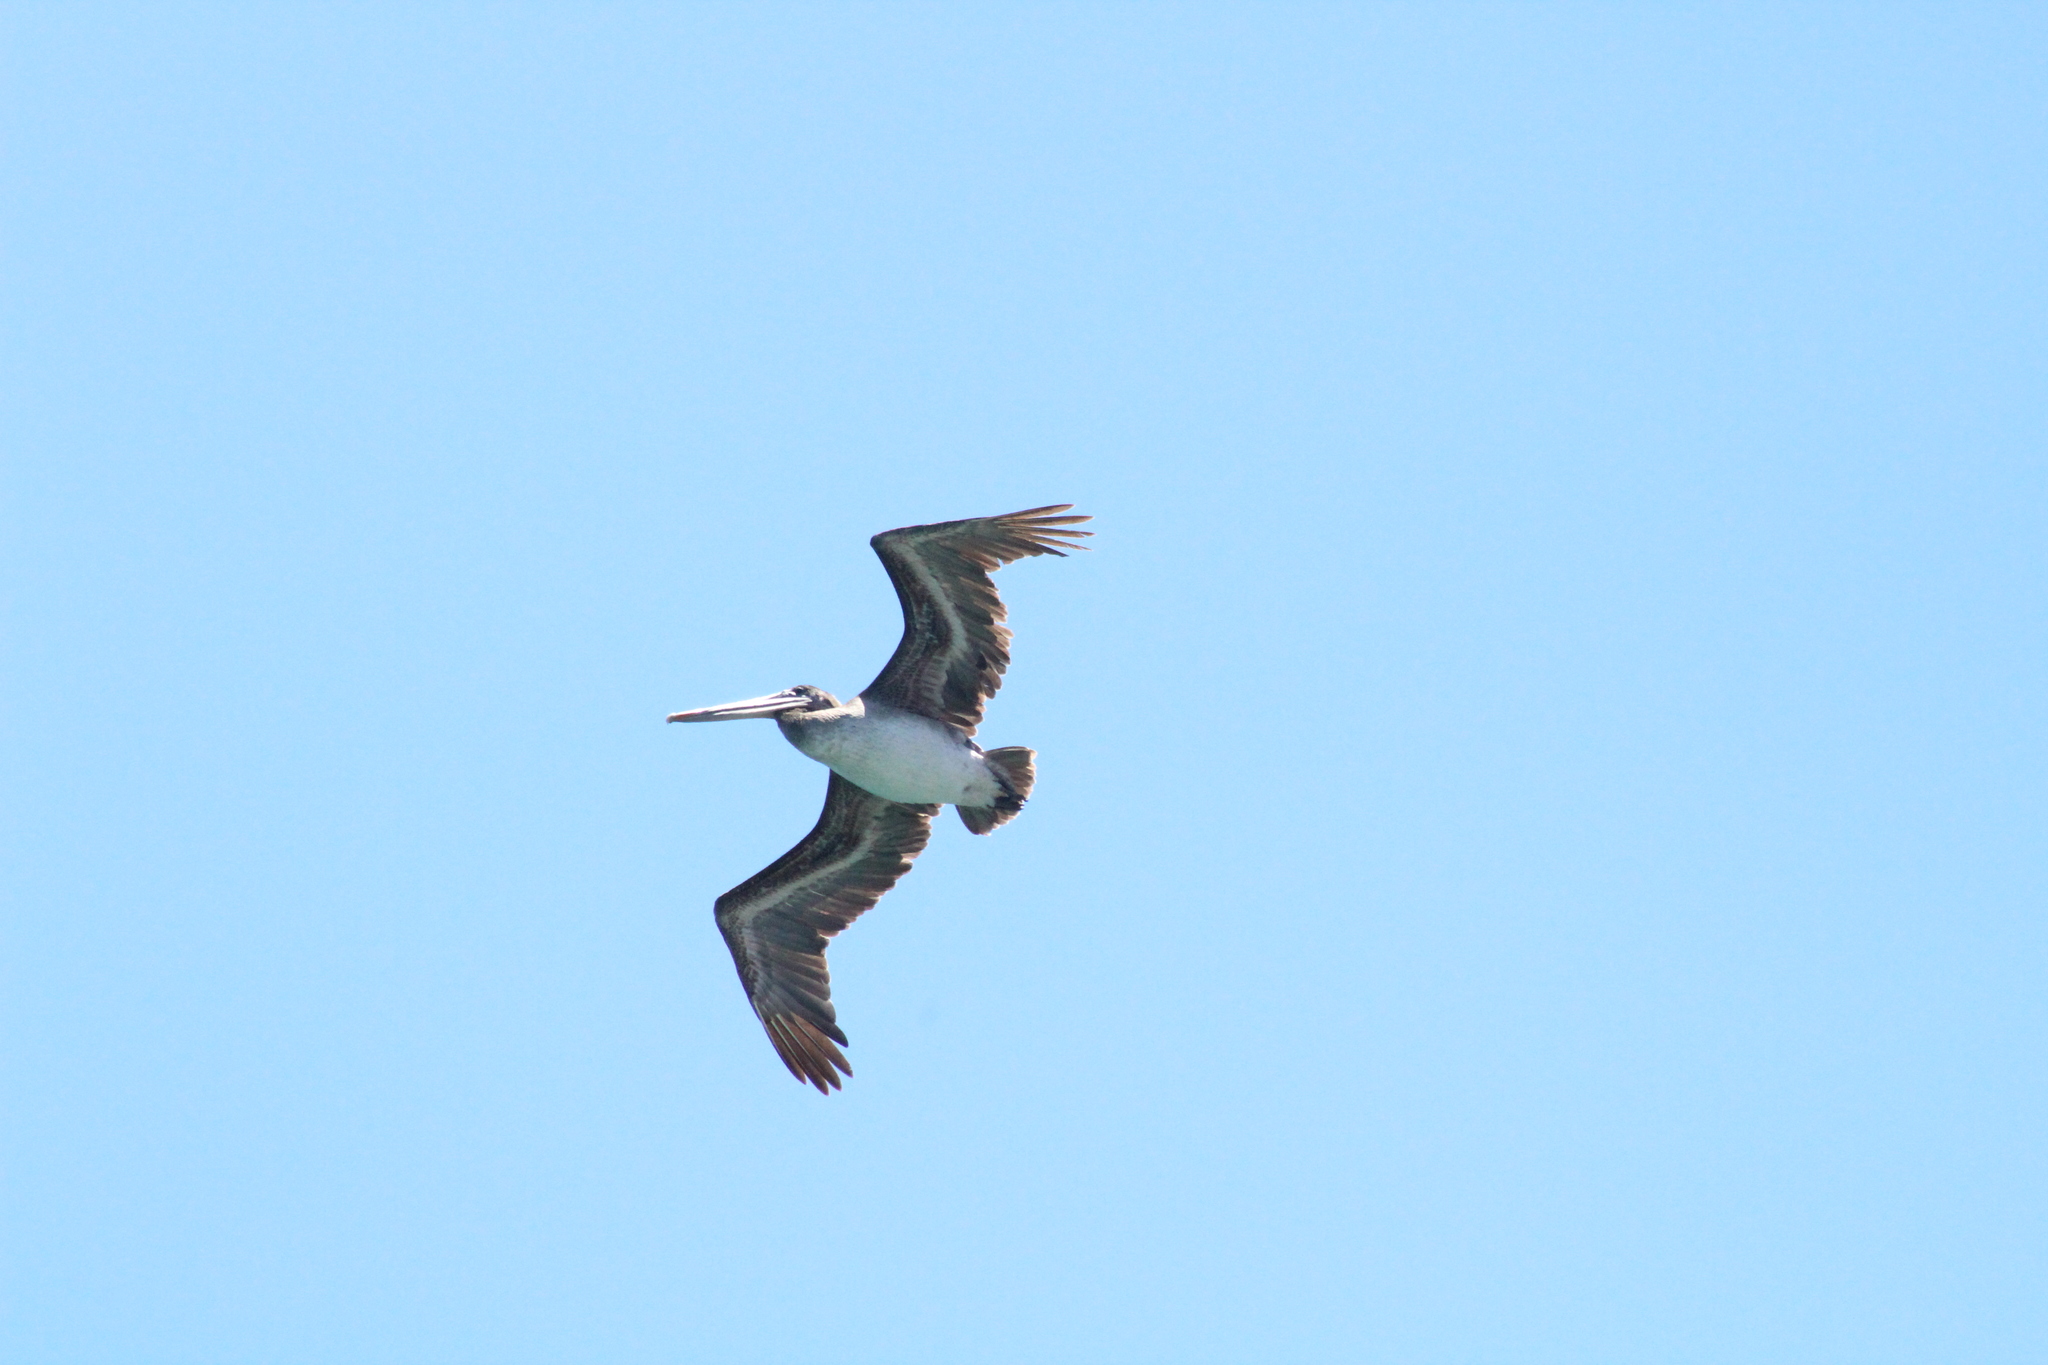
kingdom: Animalia
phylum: Chordata
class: Aves
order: Pelecaniformes
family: Pelecanidae
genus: Pelecanus
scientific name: Pelecanus occidentalis
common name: Brown pelican
